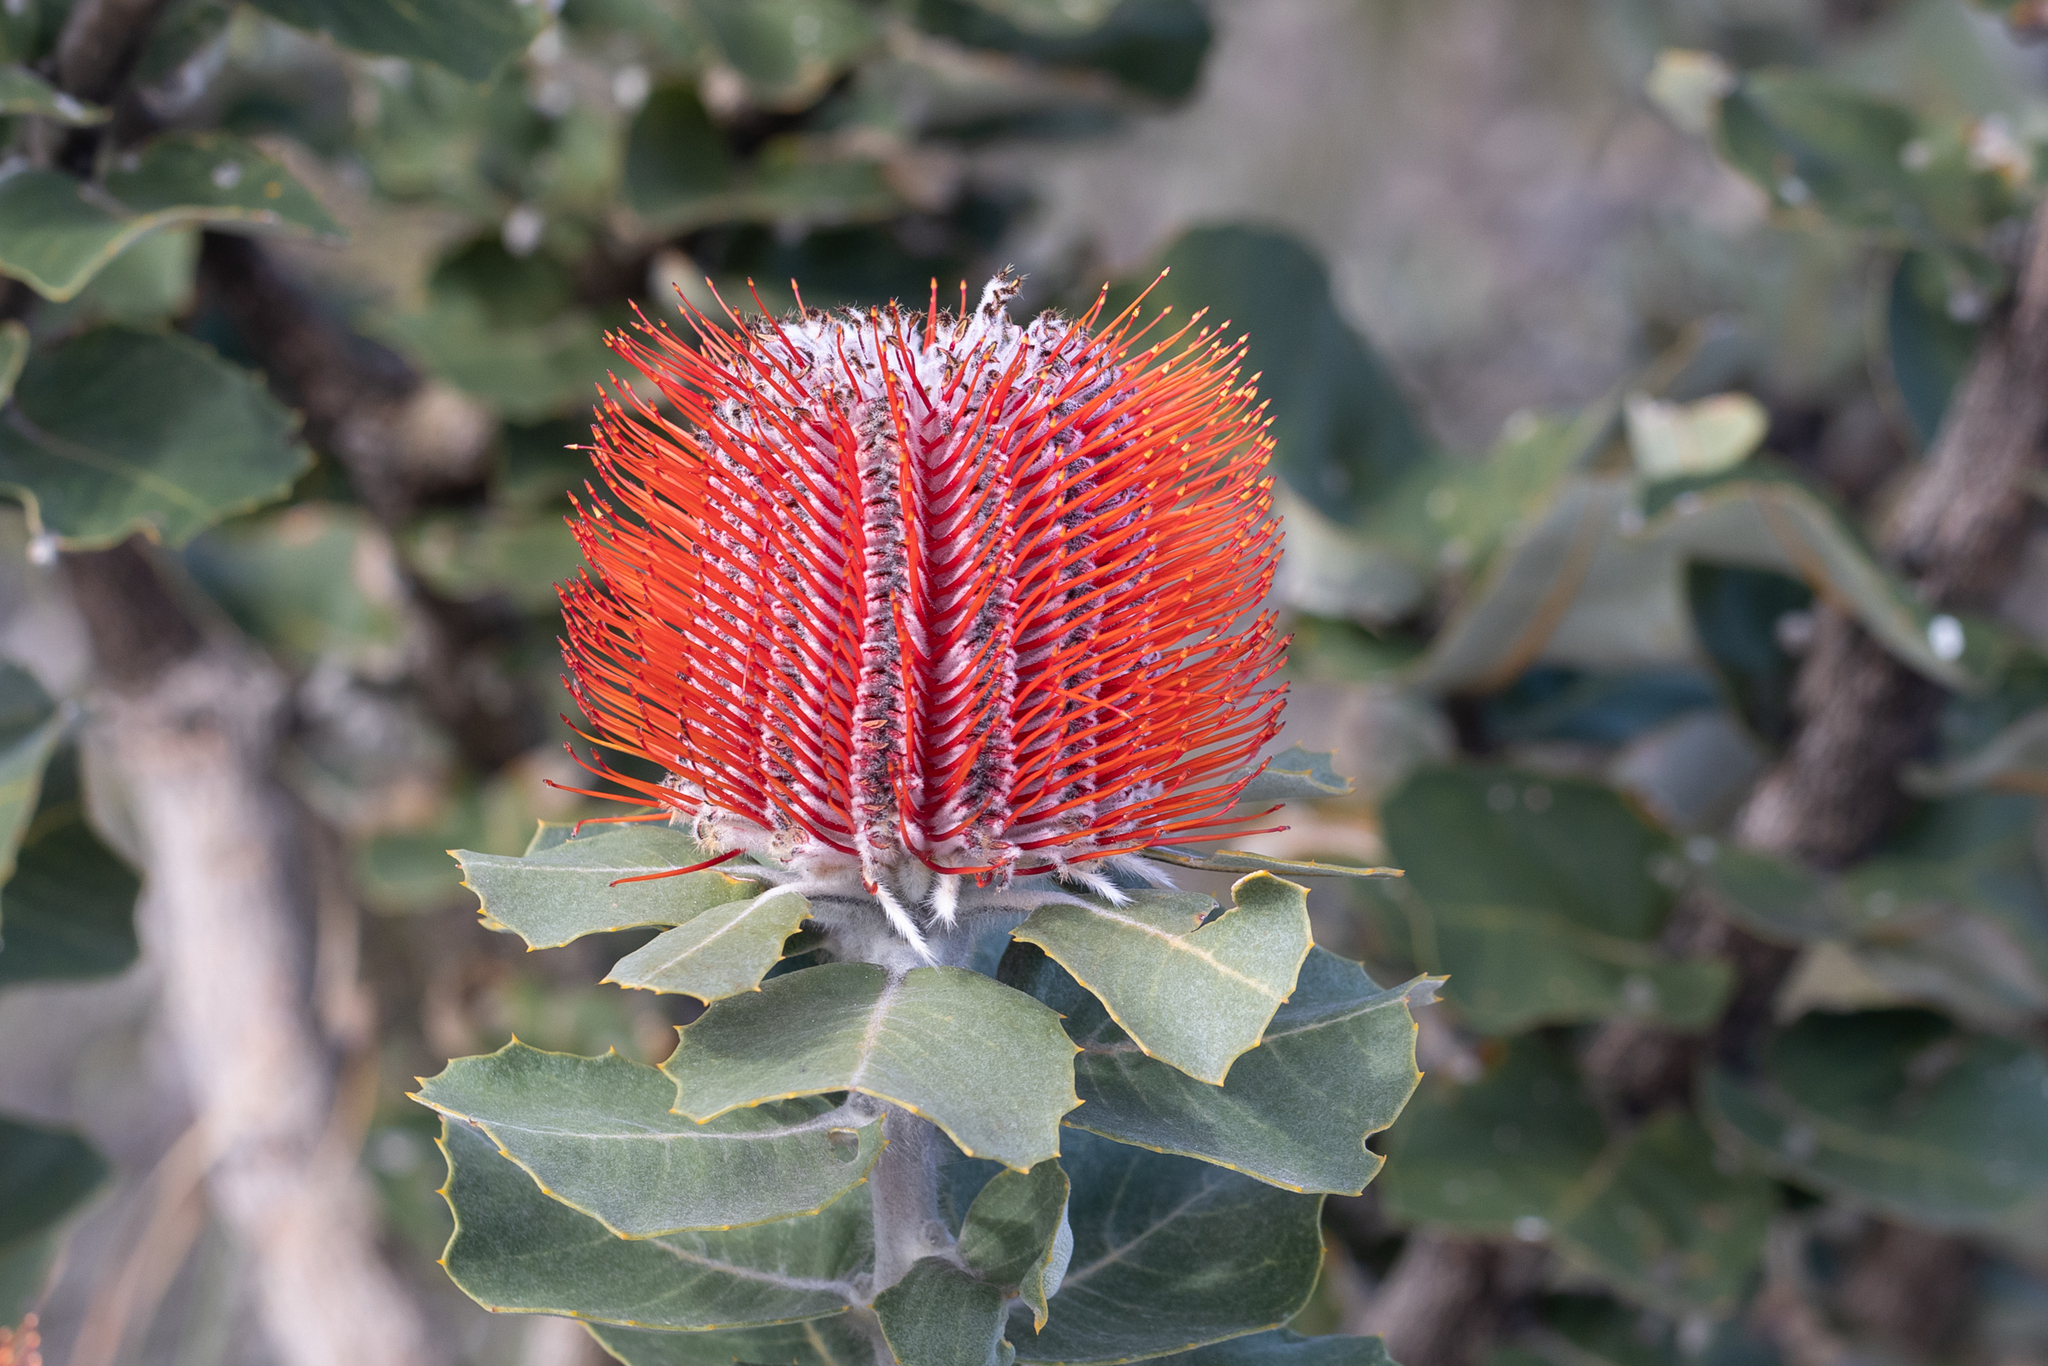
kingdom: Plantae
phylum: Tracheophyta
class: Magnoliopsida
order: Proteales
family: Proteaceae
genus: Banksia
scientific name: Banksia coccinea
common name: Scarlet banksia
